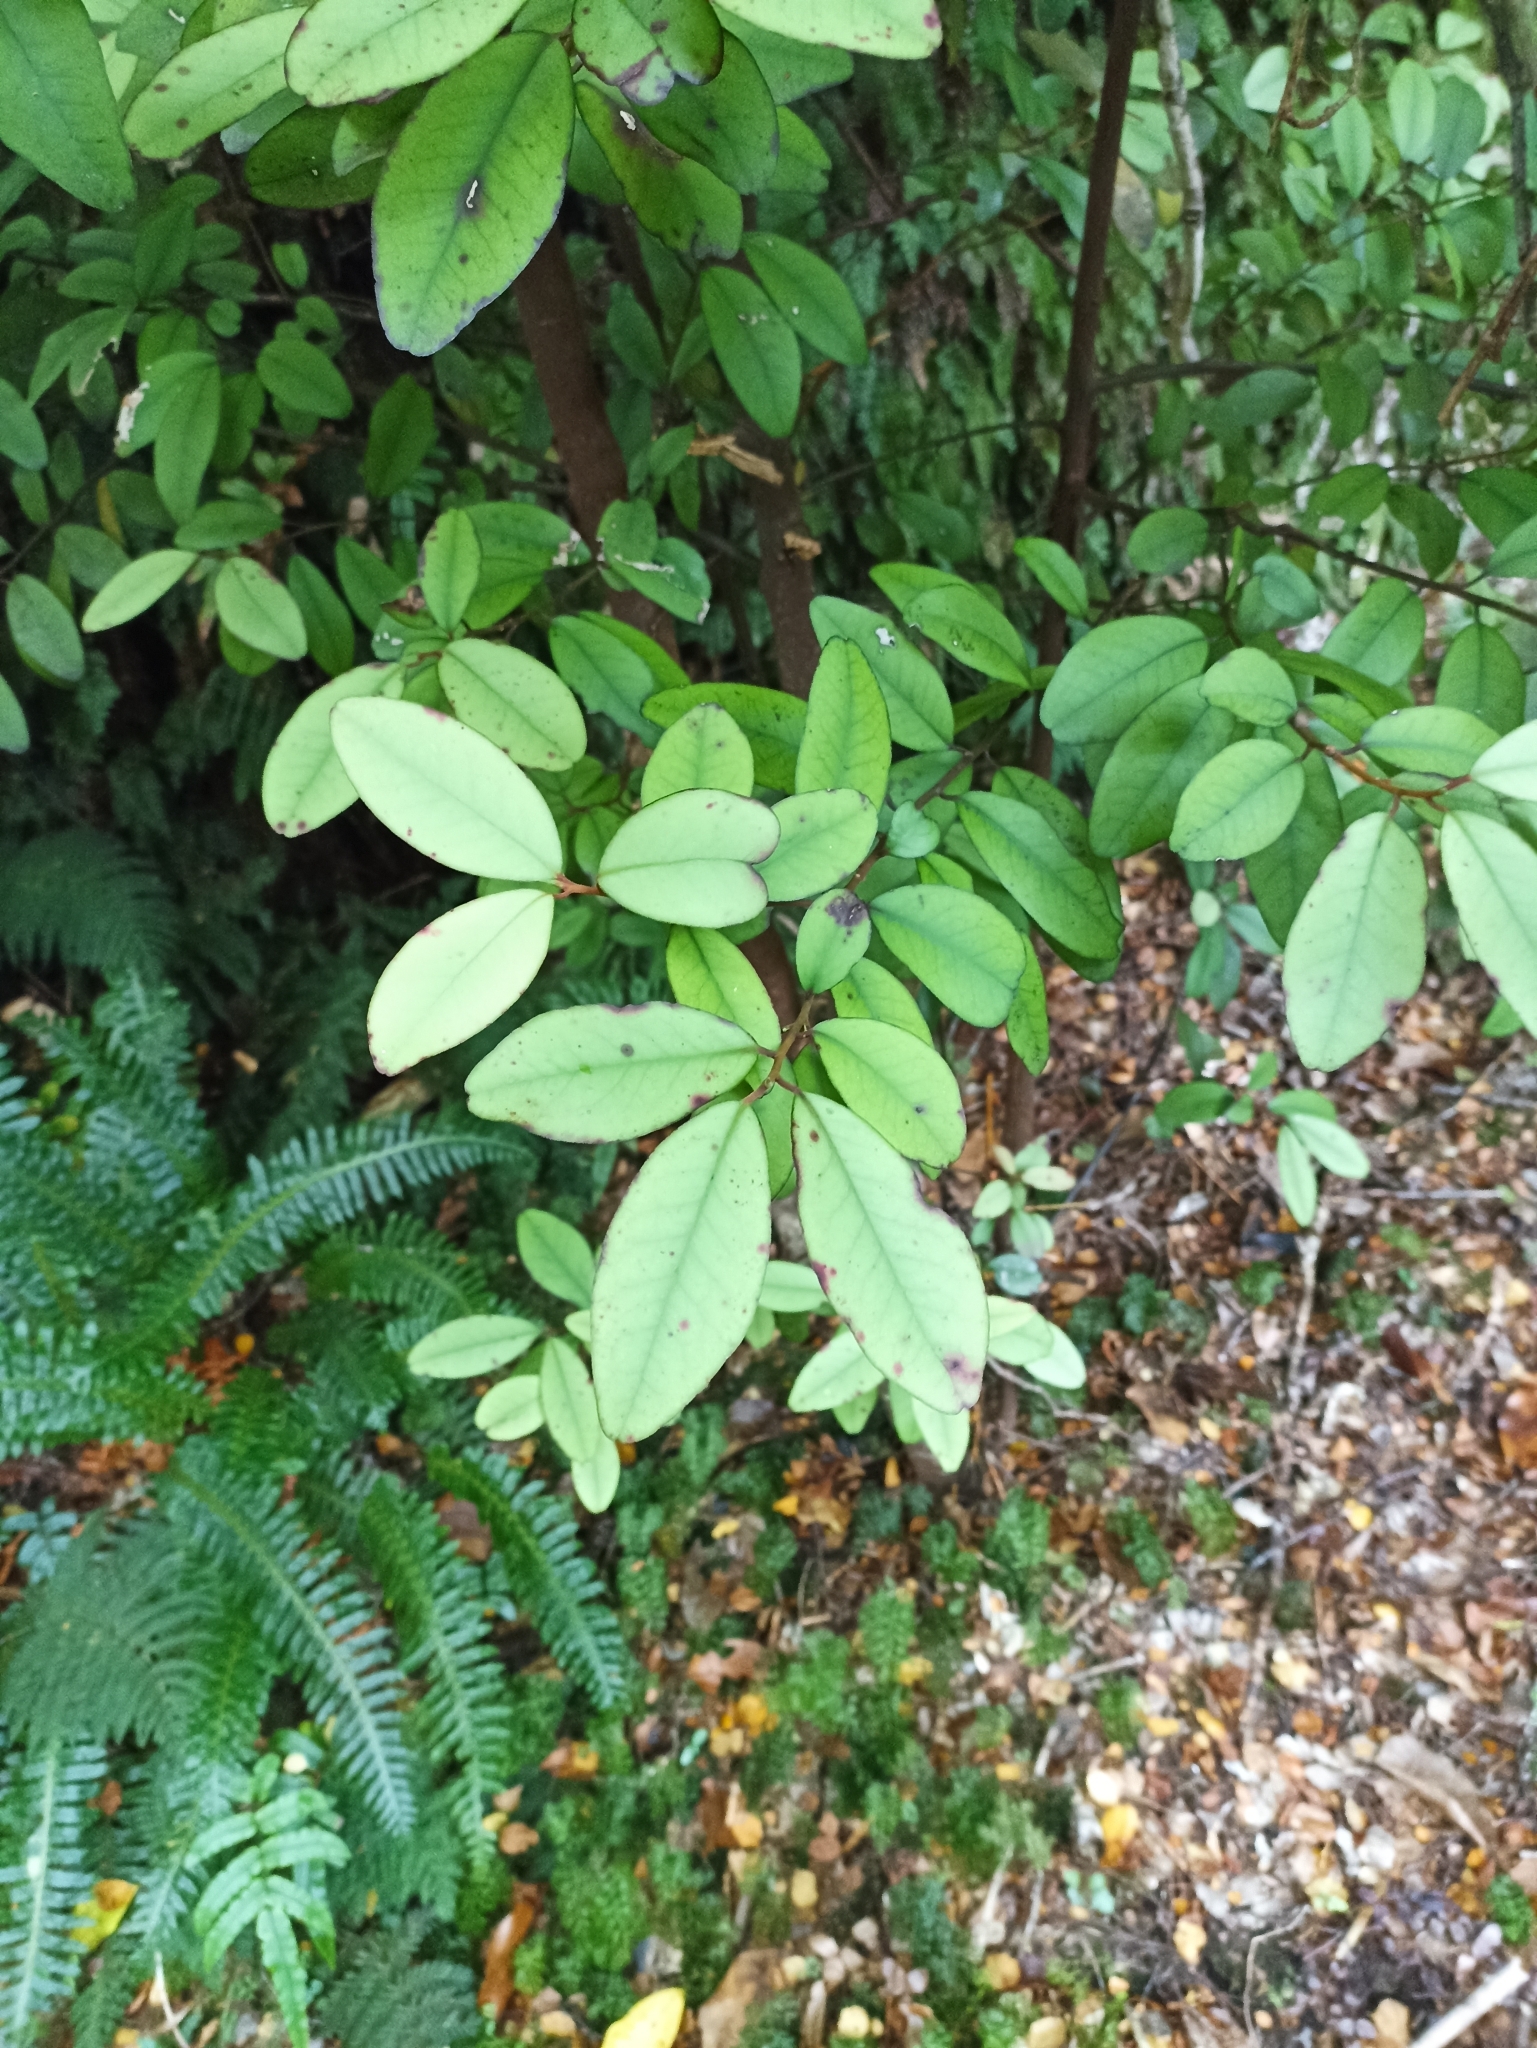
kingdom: Plantae
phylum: Tracheophyta
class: Magnoliopsida
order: Canellales
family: Winteraceae
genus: Pseudowintera
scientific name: Pseudowintera colorata
